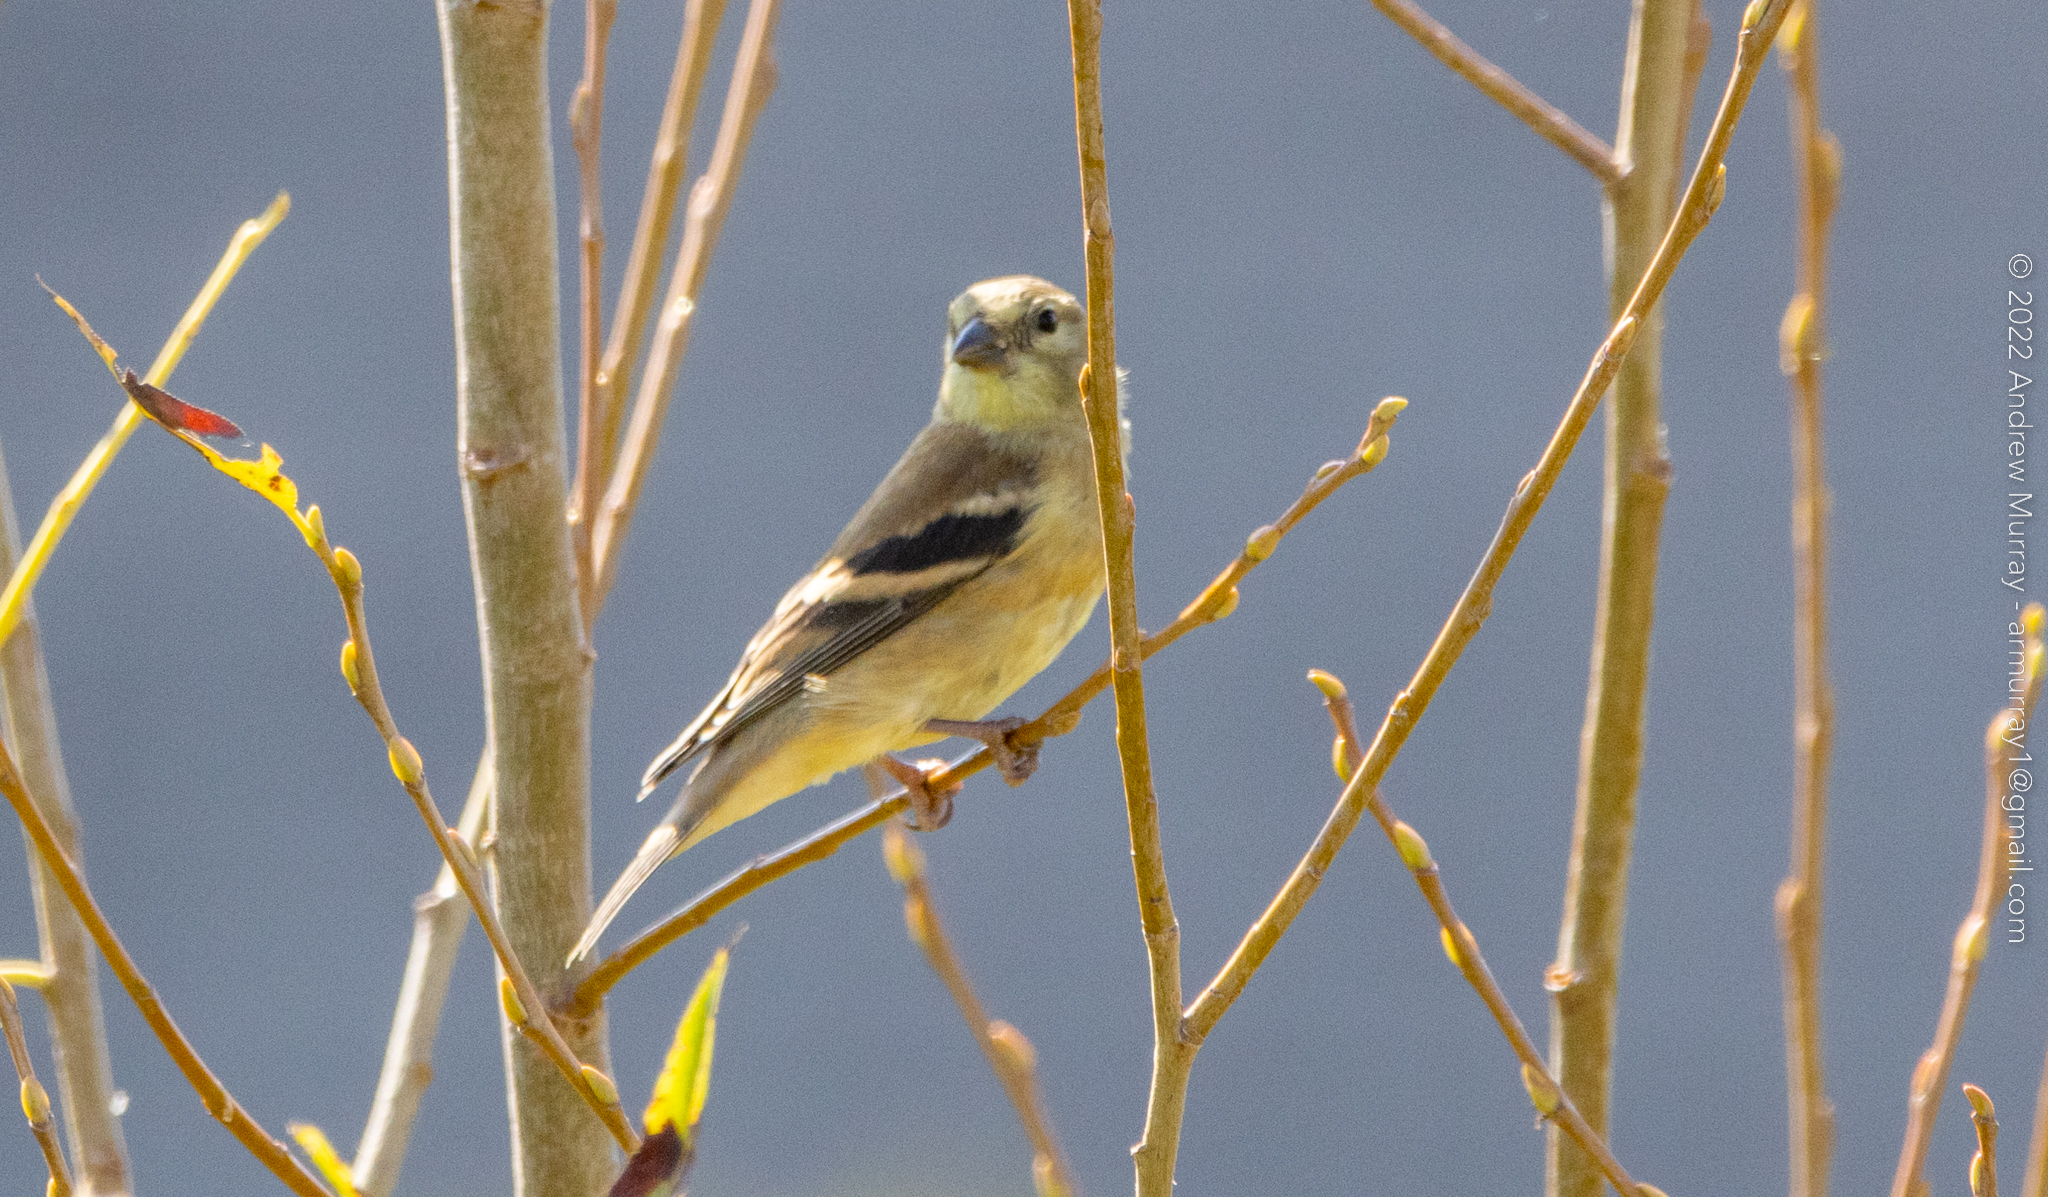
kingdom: Animalia
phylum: Chordata
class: Aves
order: Passeriformes
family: Fringillidae
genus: Spinus
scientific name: Spinus tristis
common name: American goldfinch
